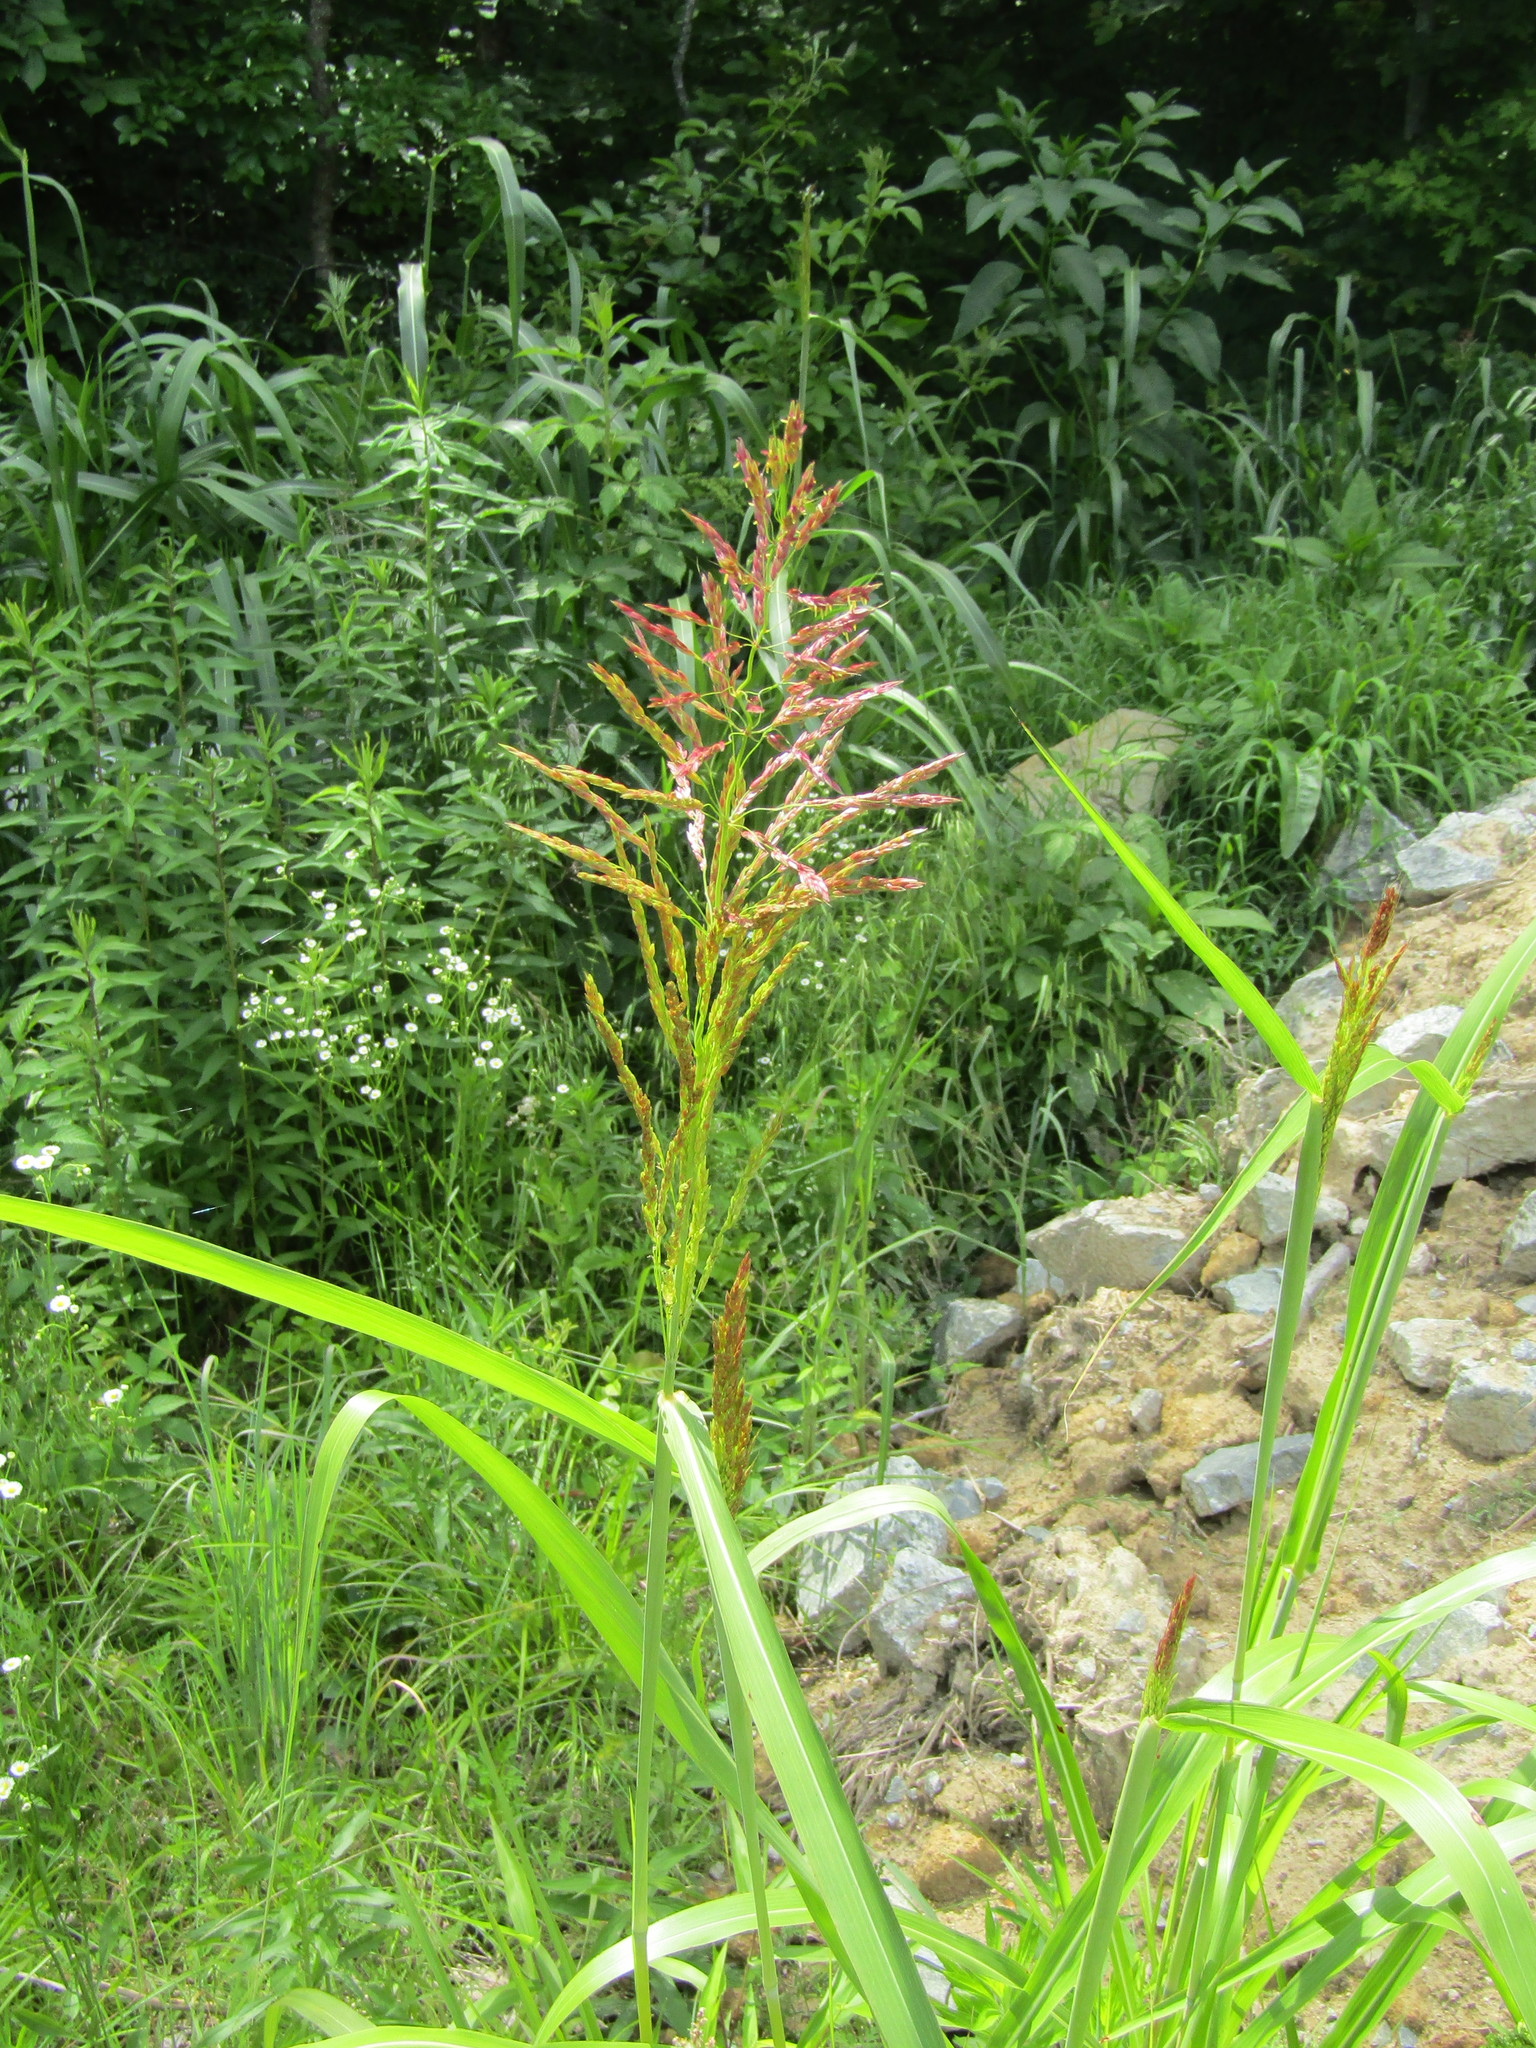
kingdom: Plantae
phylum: Tracheophyta
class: Liliopsida
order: Poales
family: Poaceae
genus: Sorghum
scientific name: Sorghum halepense
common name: Johnson-grass
